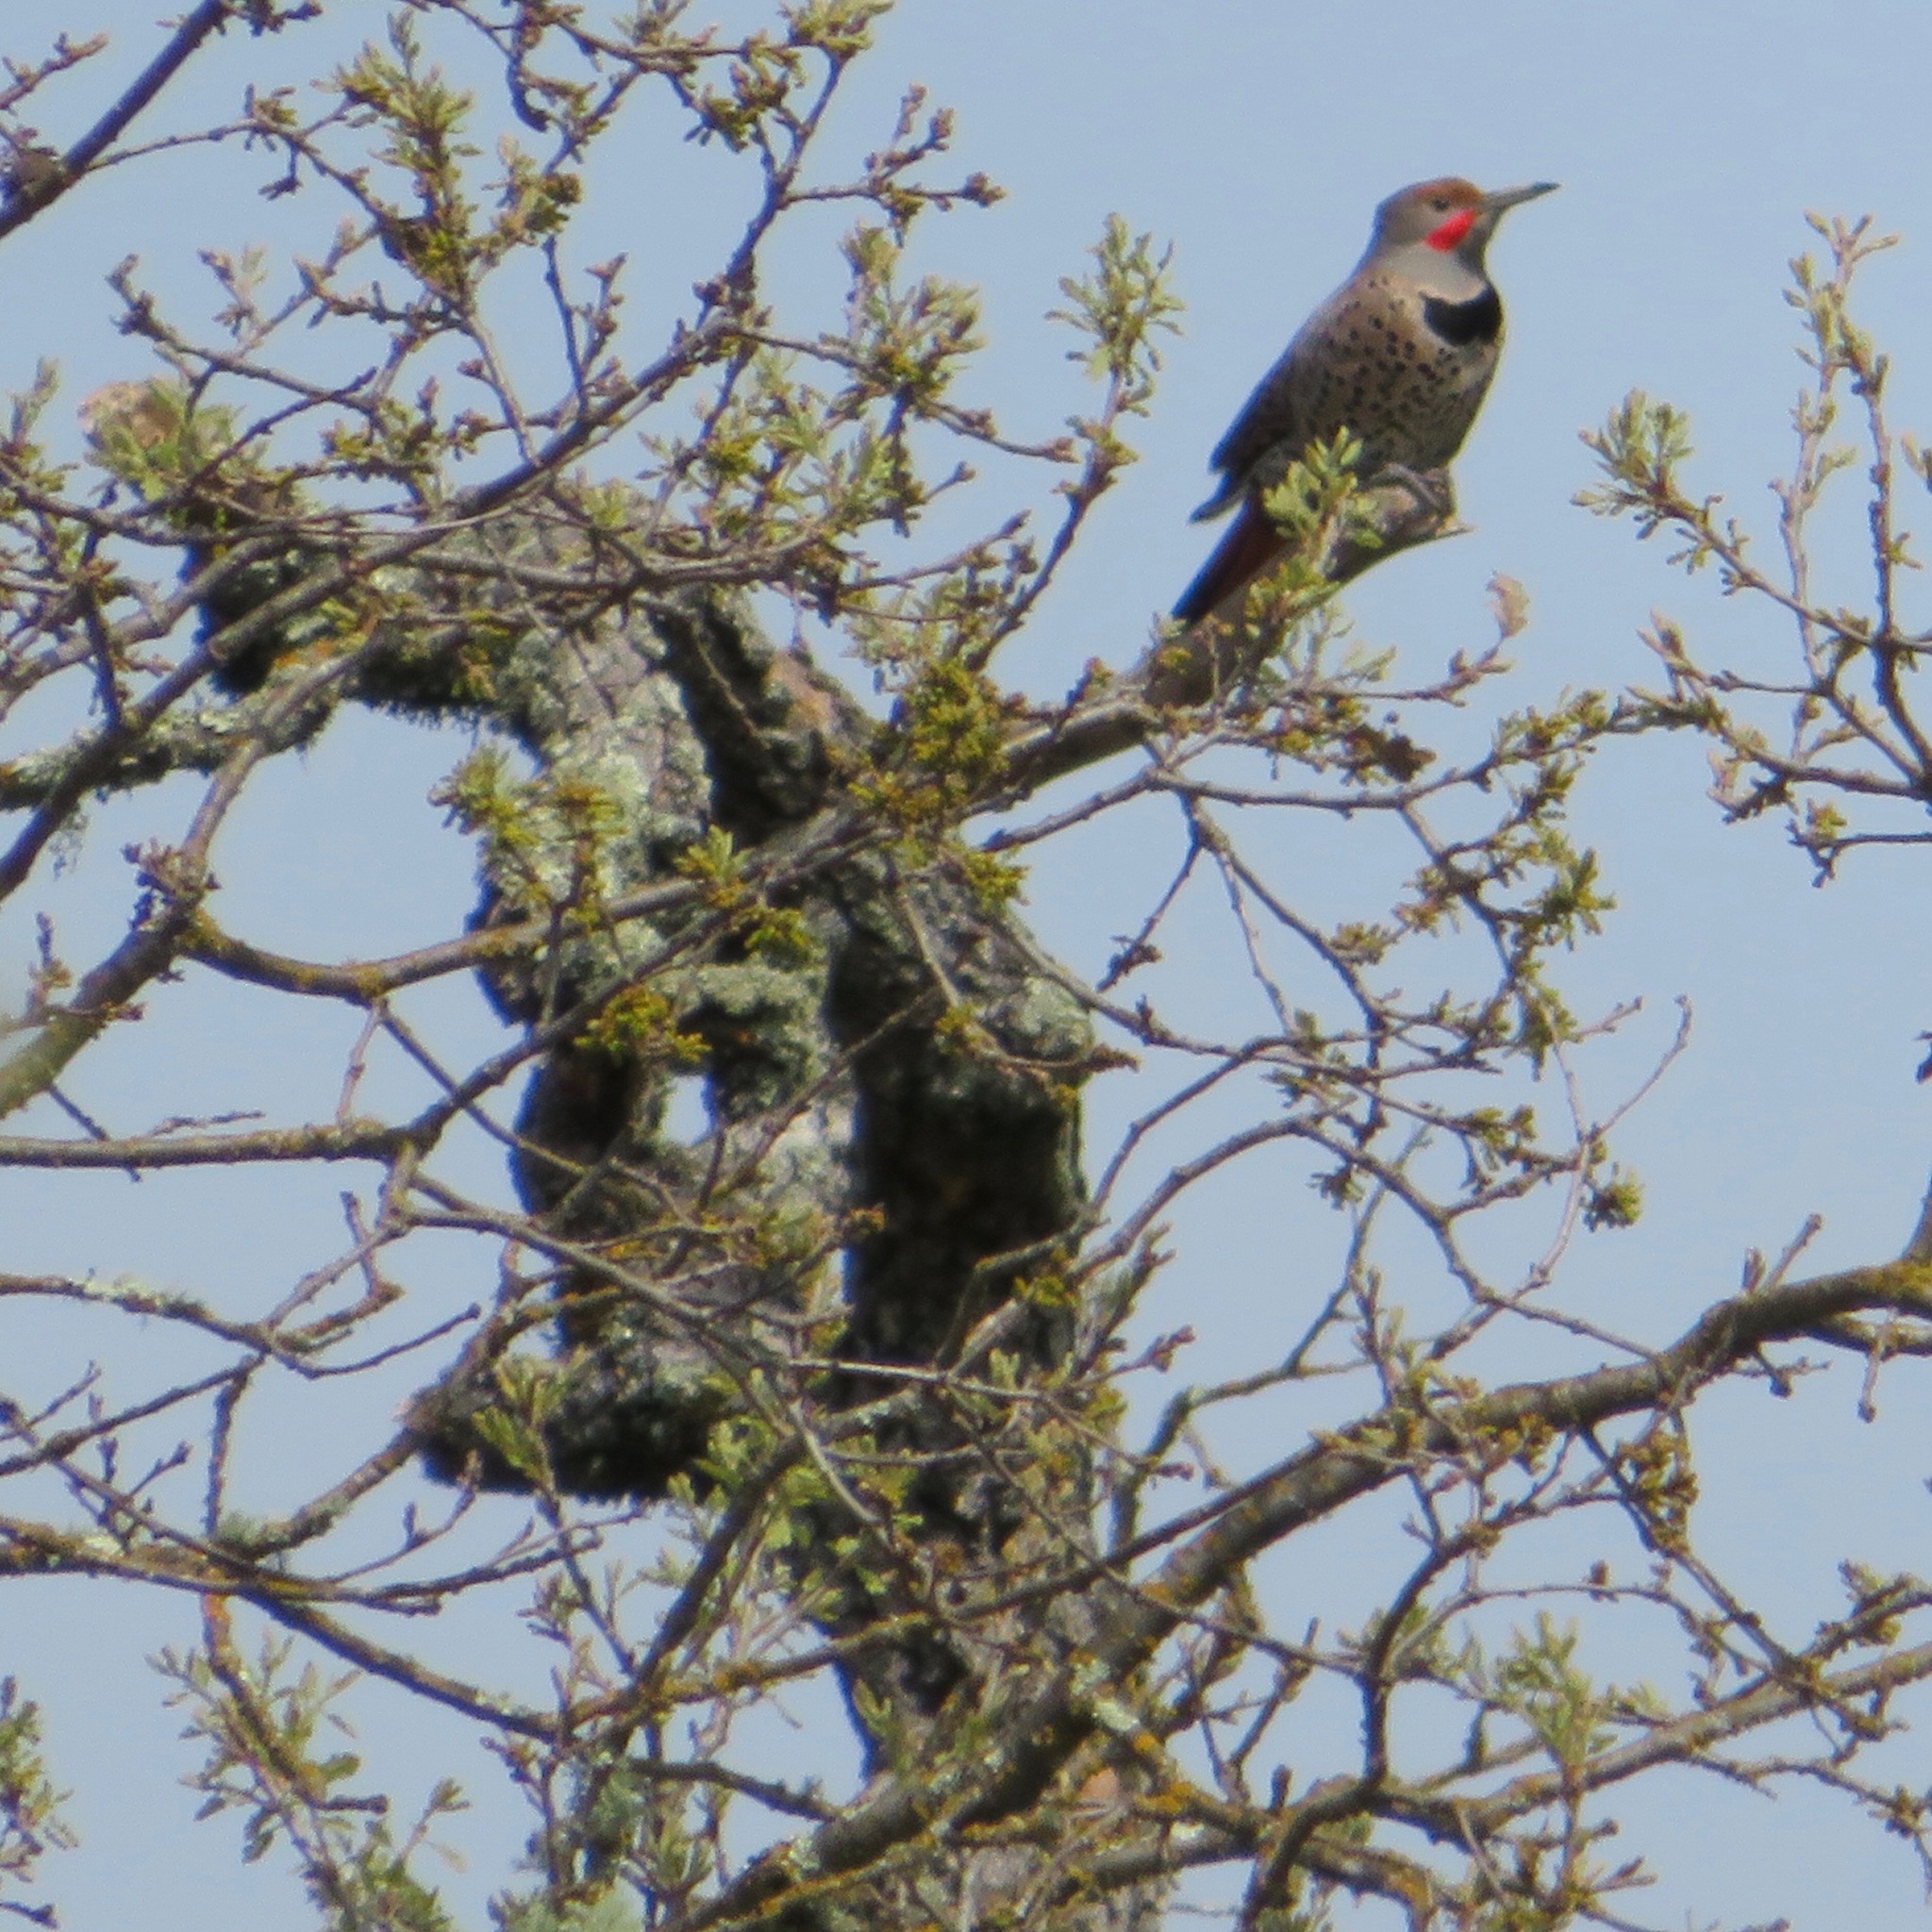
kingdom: Animalia
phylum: Chordata
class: Aves
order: Piciformes
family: Picidae
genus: Colaptes
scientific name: Colaptes auratus
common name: Northern flicker
